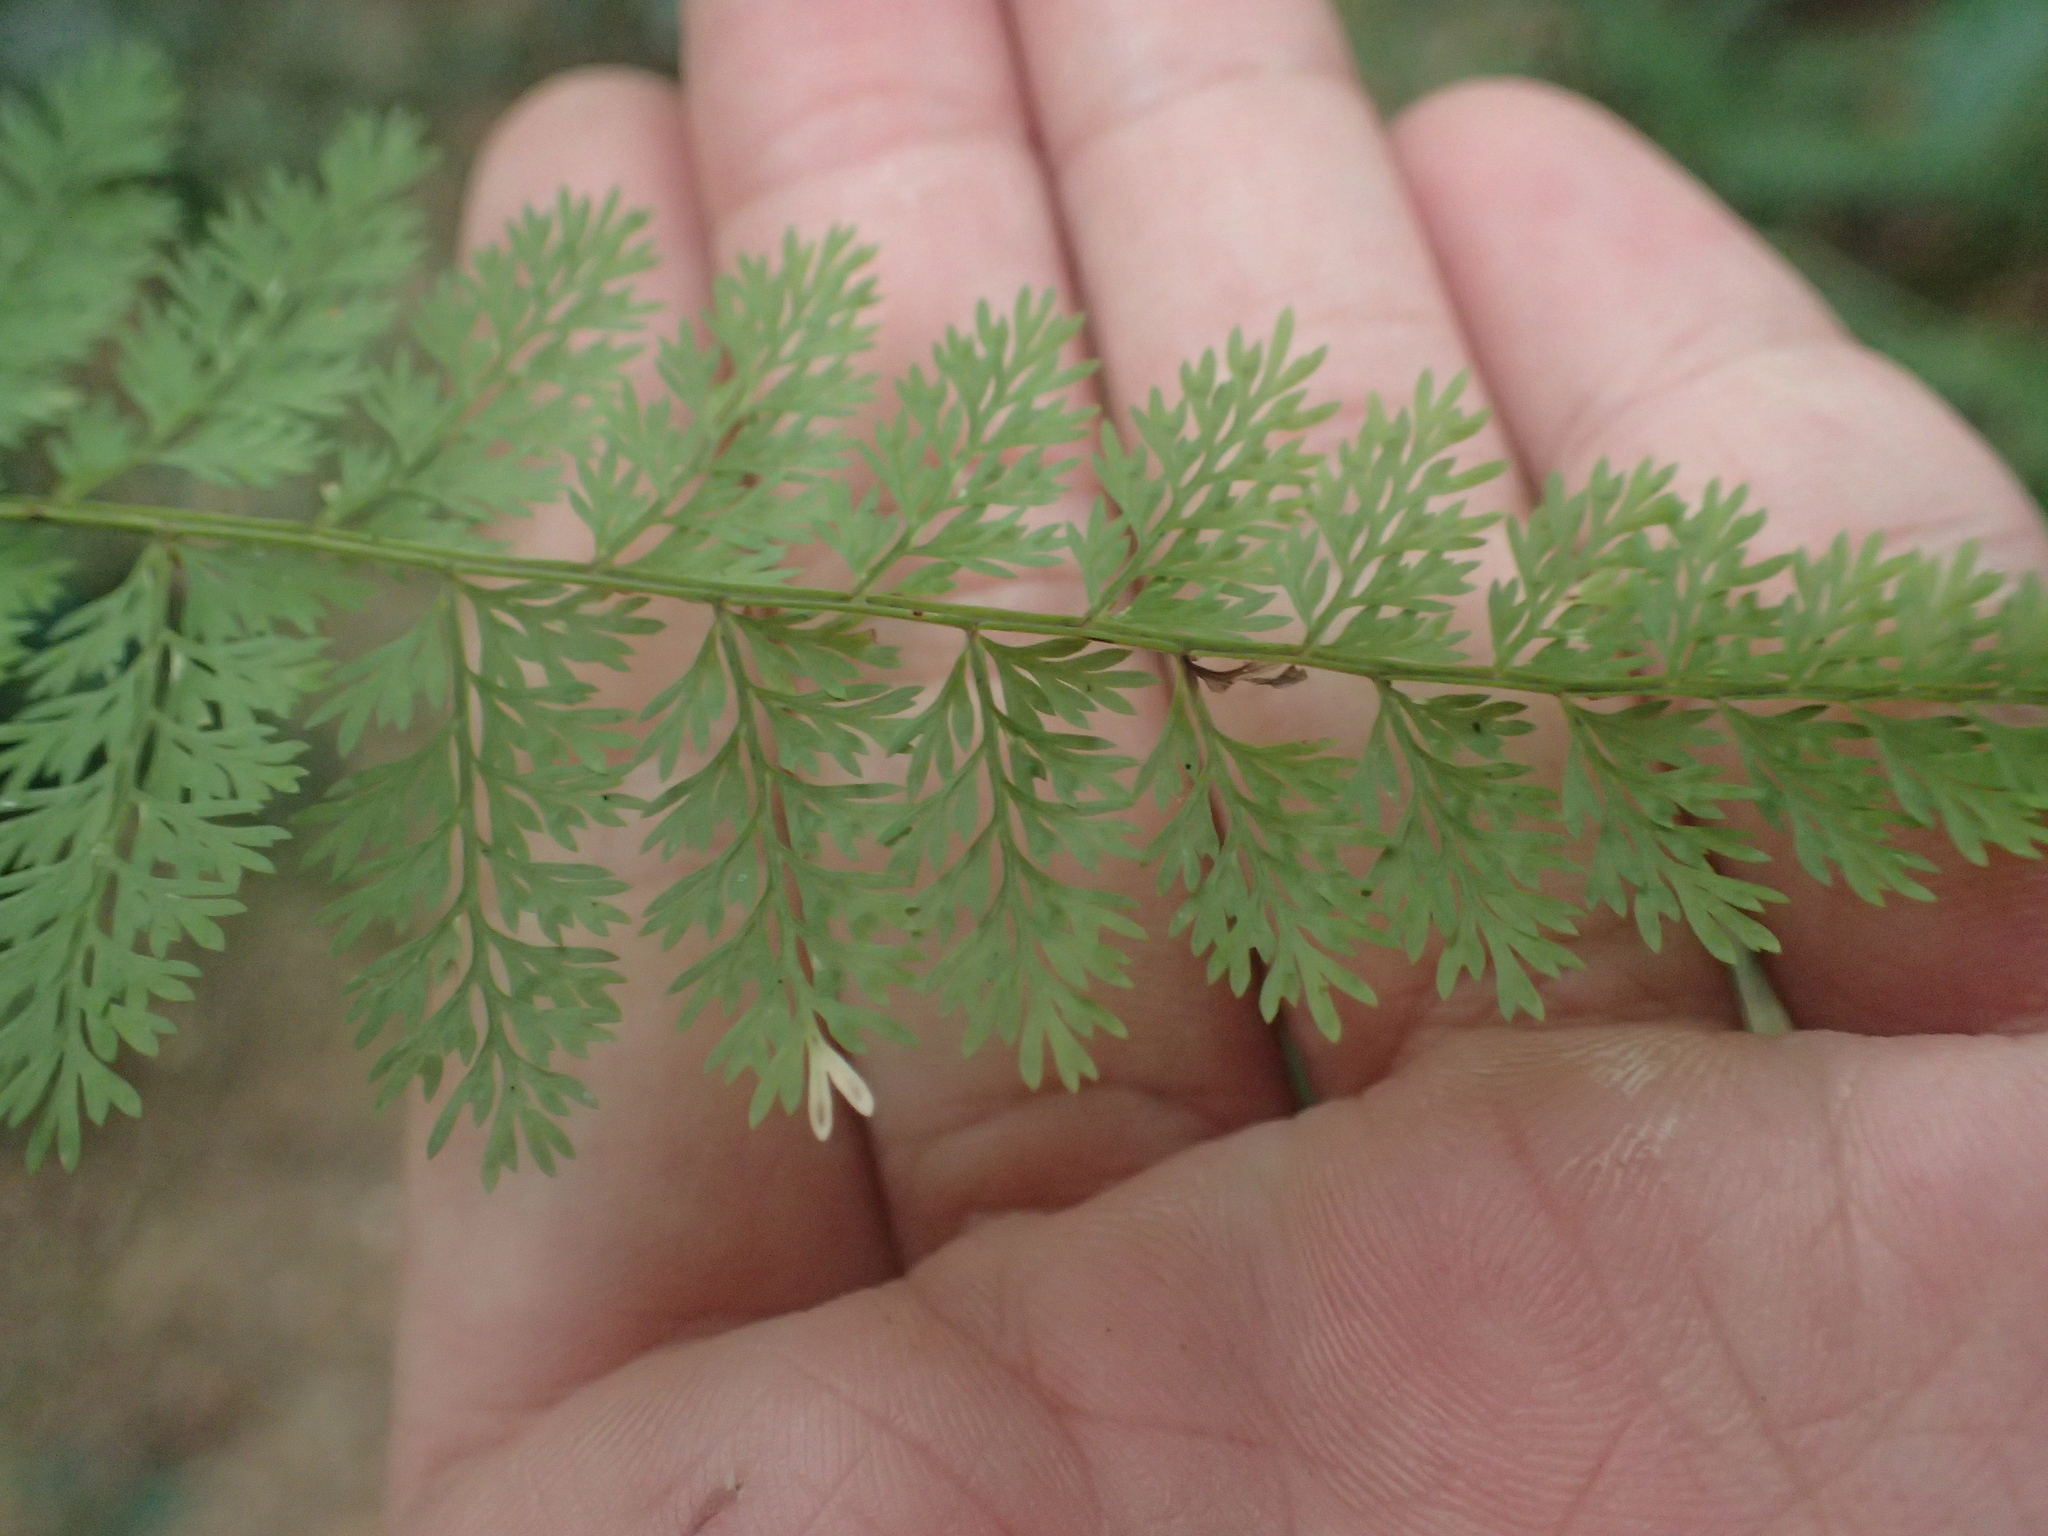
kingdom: Plantae
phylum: Tracheophyta
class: Polypodiopsida
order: Polypodiales
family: Davalliaceae
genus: Davallia
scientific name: Davallia perdurans
